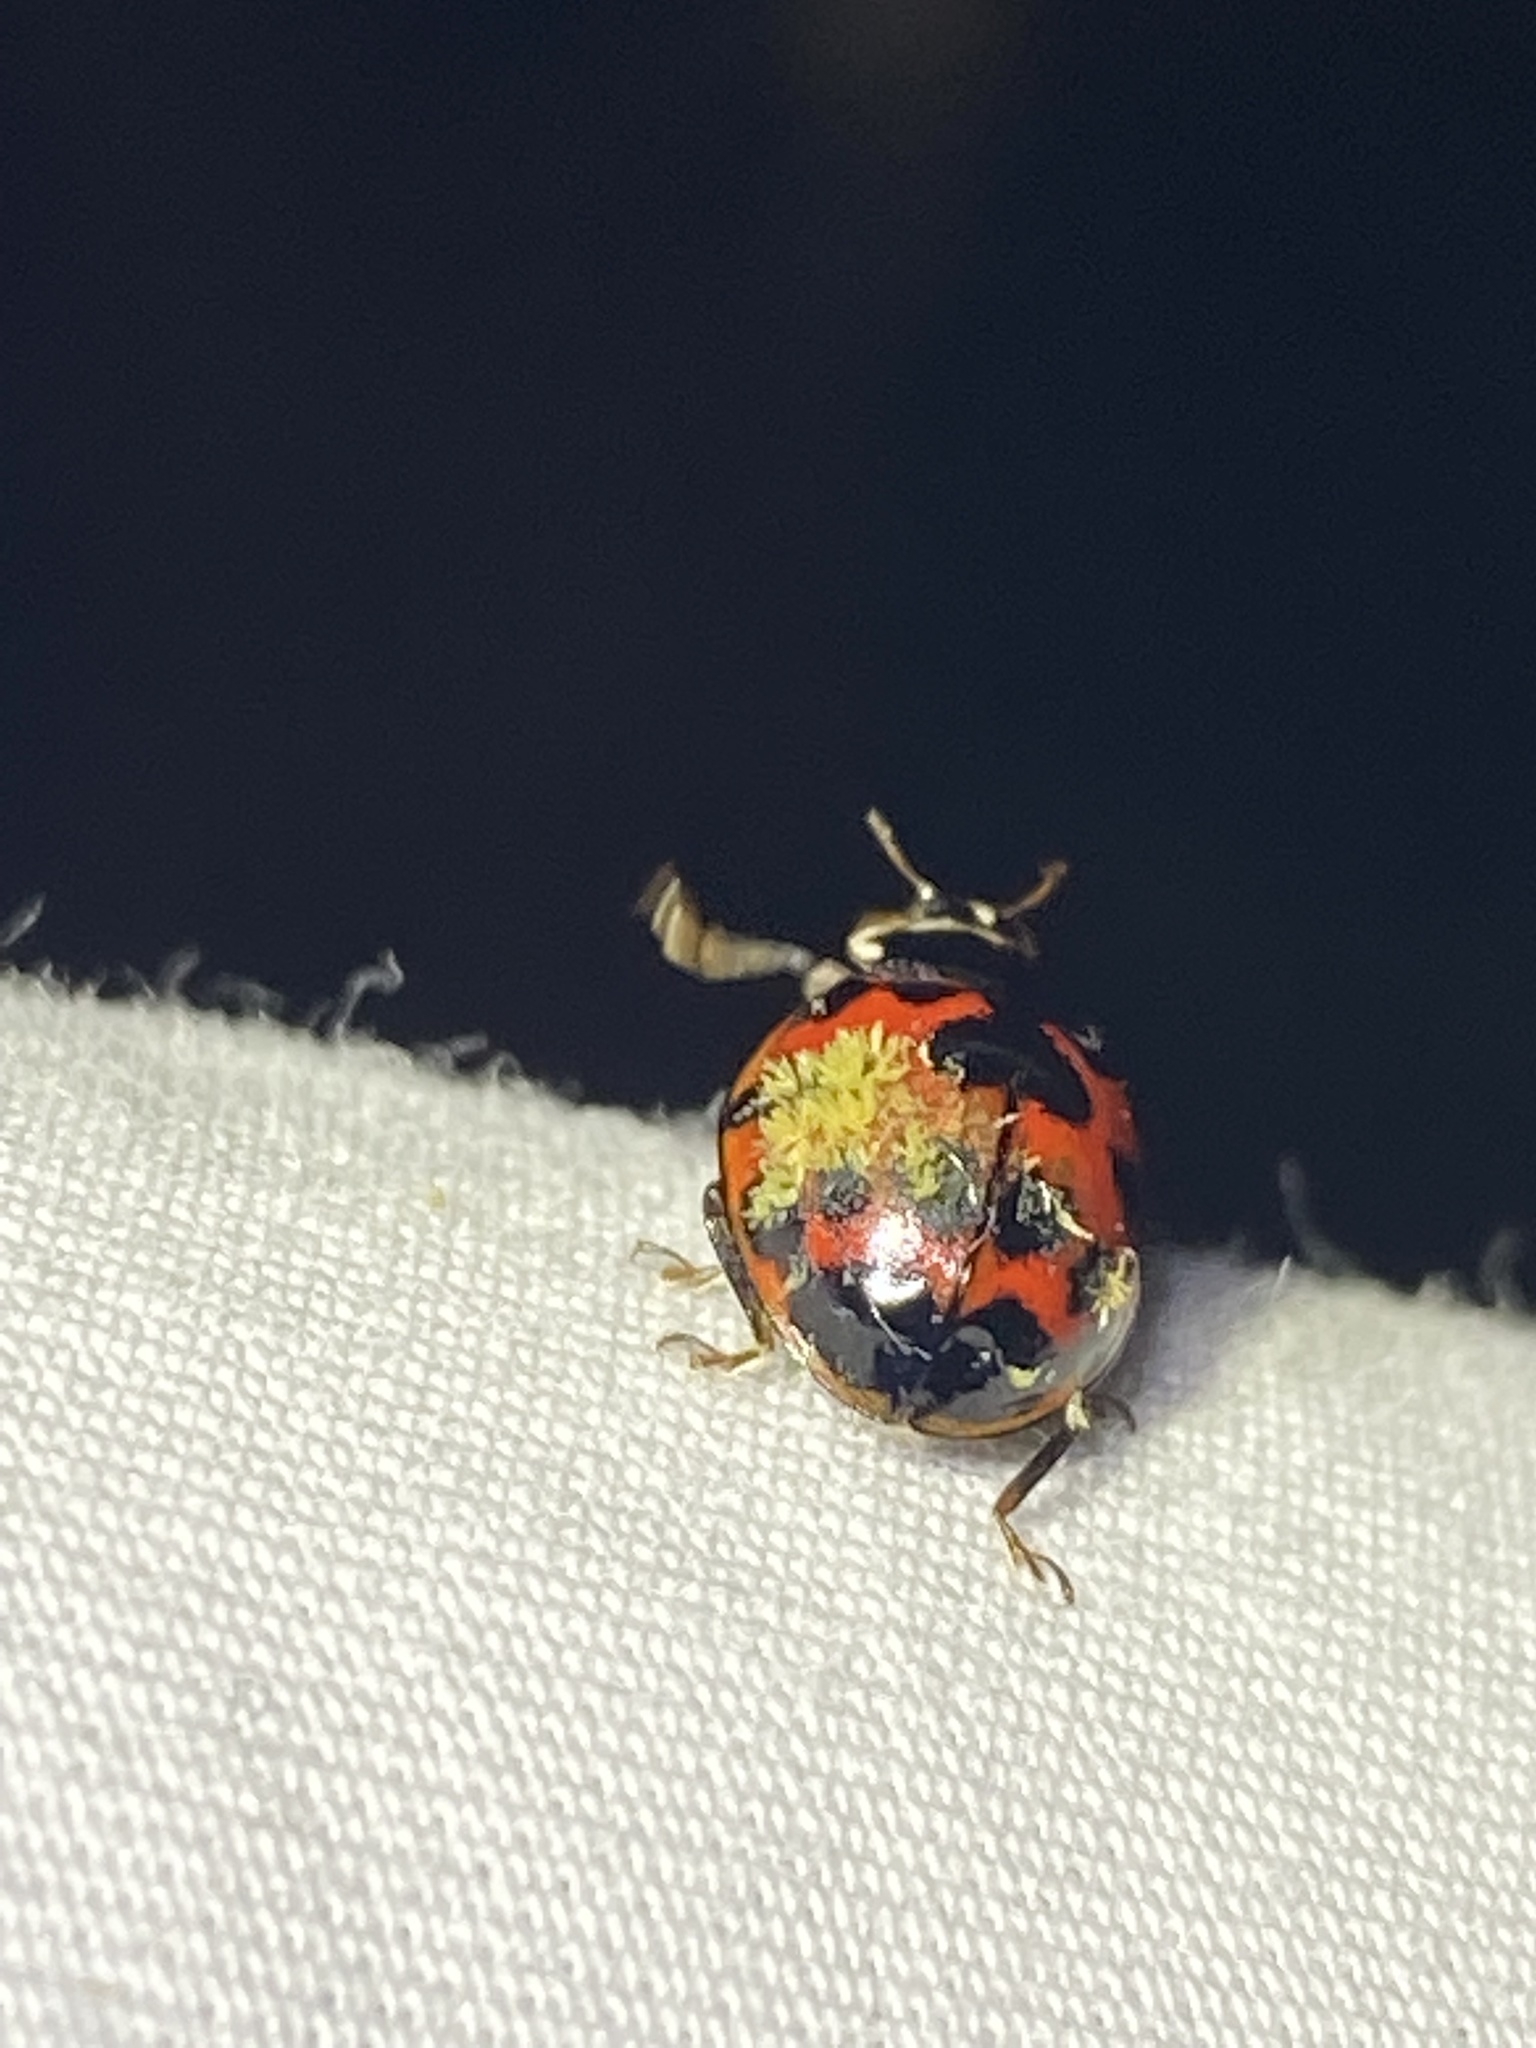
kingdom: Fungi
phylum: Ascomycota
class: Laboulbeniomycetes
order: Laboulbeniales
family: Laboulbeniaceae
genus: Hesperomyces
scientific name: Hesperomyces harmoniae
